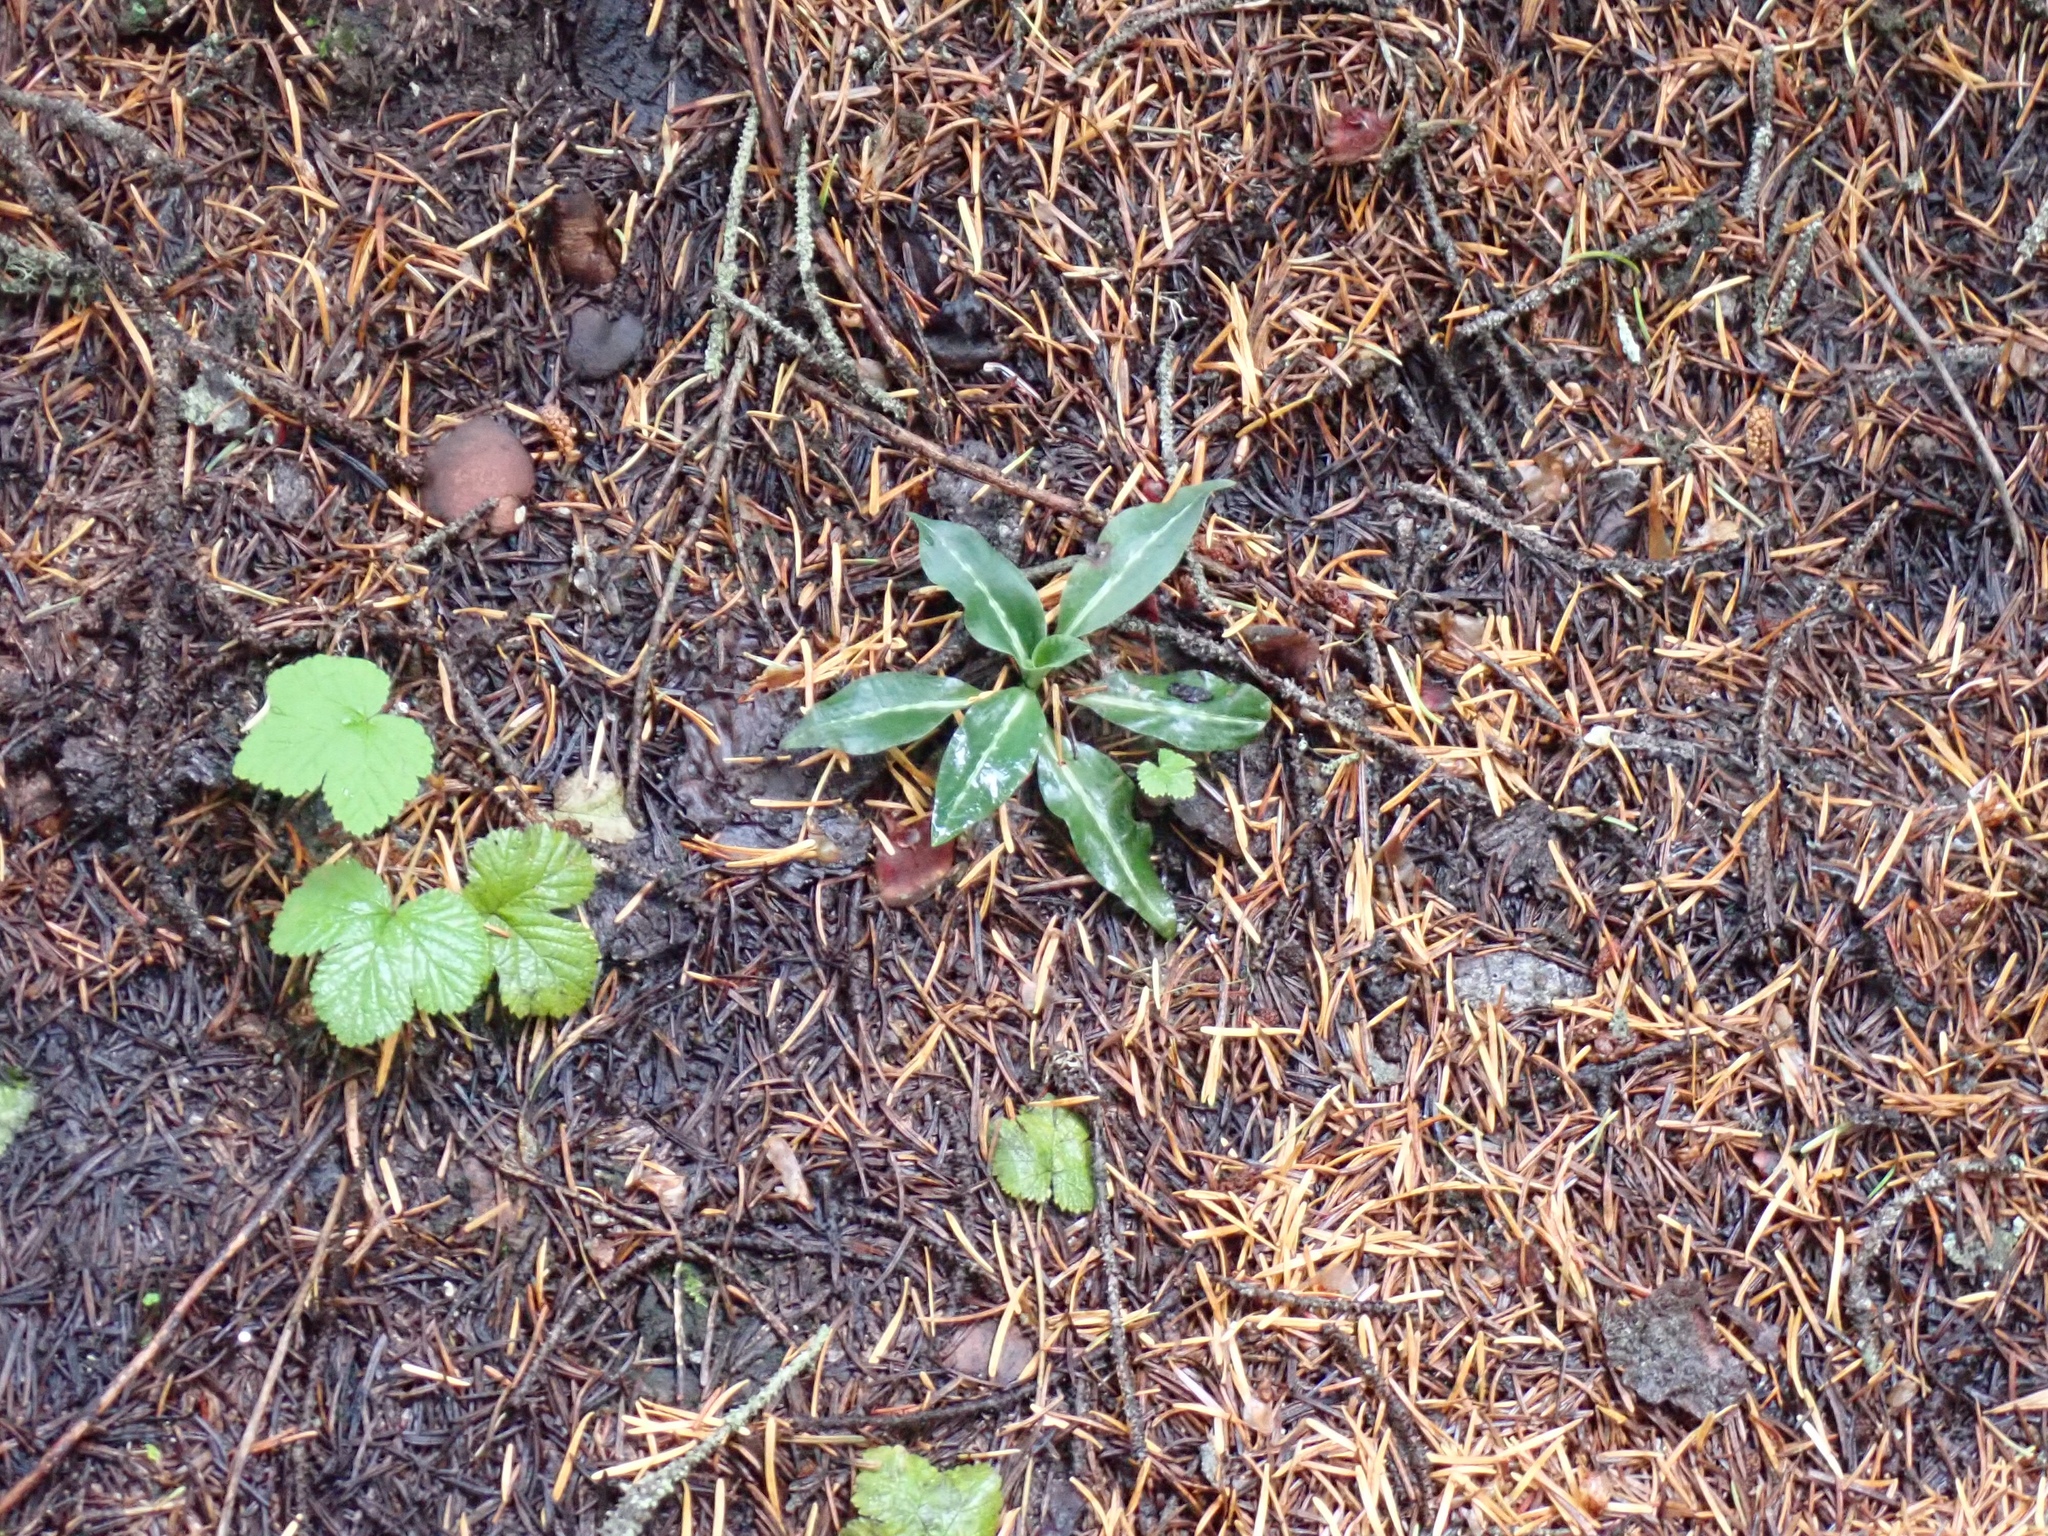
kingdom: Plantae
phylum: Tracheophyta
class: Liliopsida
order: Asparagales
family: Orchidaceae
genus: Goodyera
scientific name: Goodyera oblongifolia
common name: Giant rattlesnake-plantain
